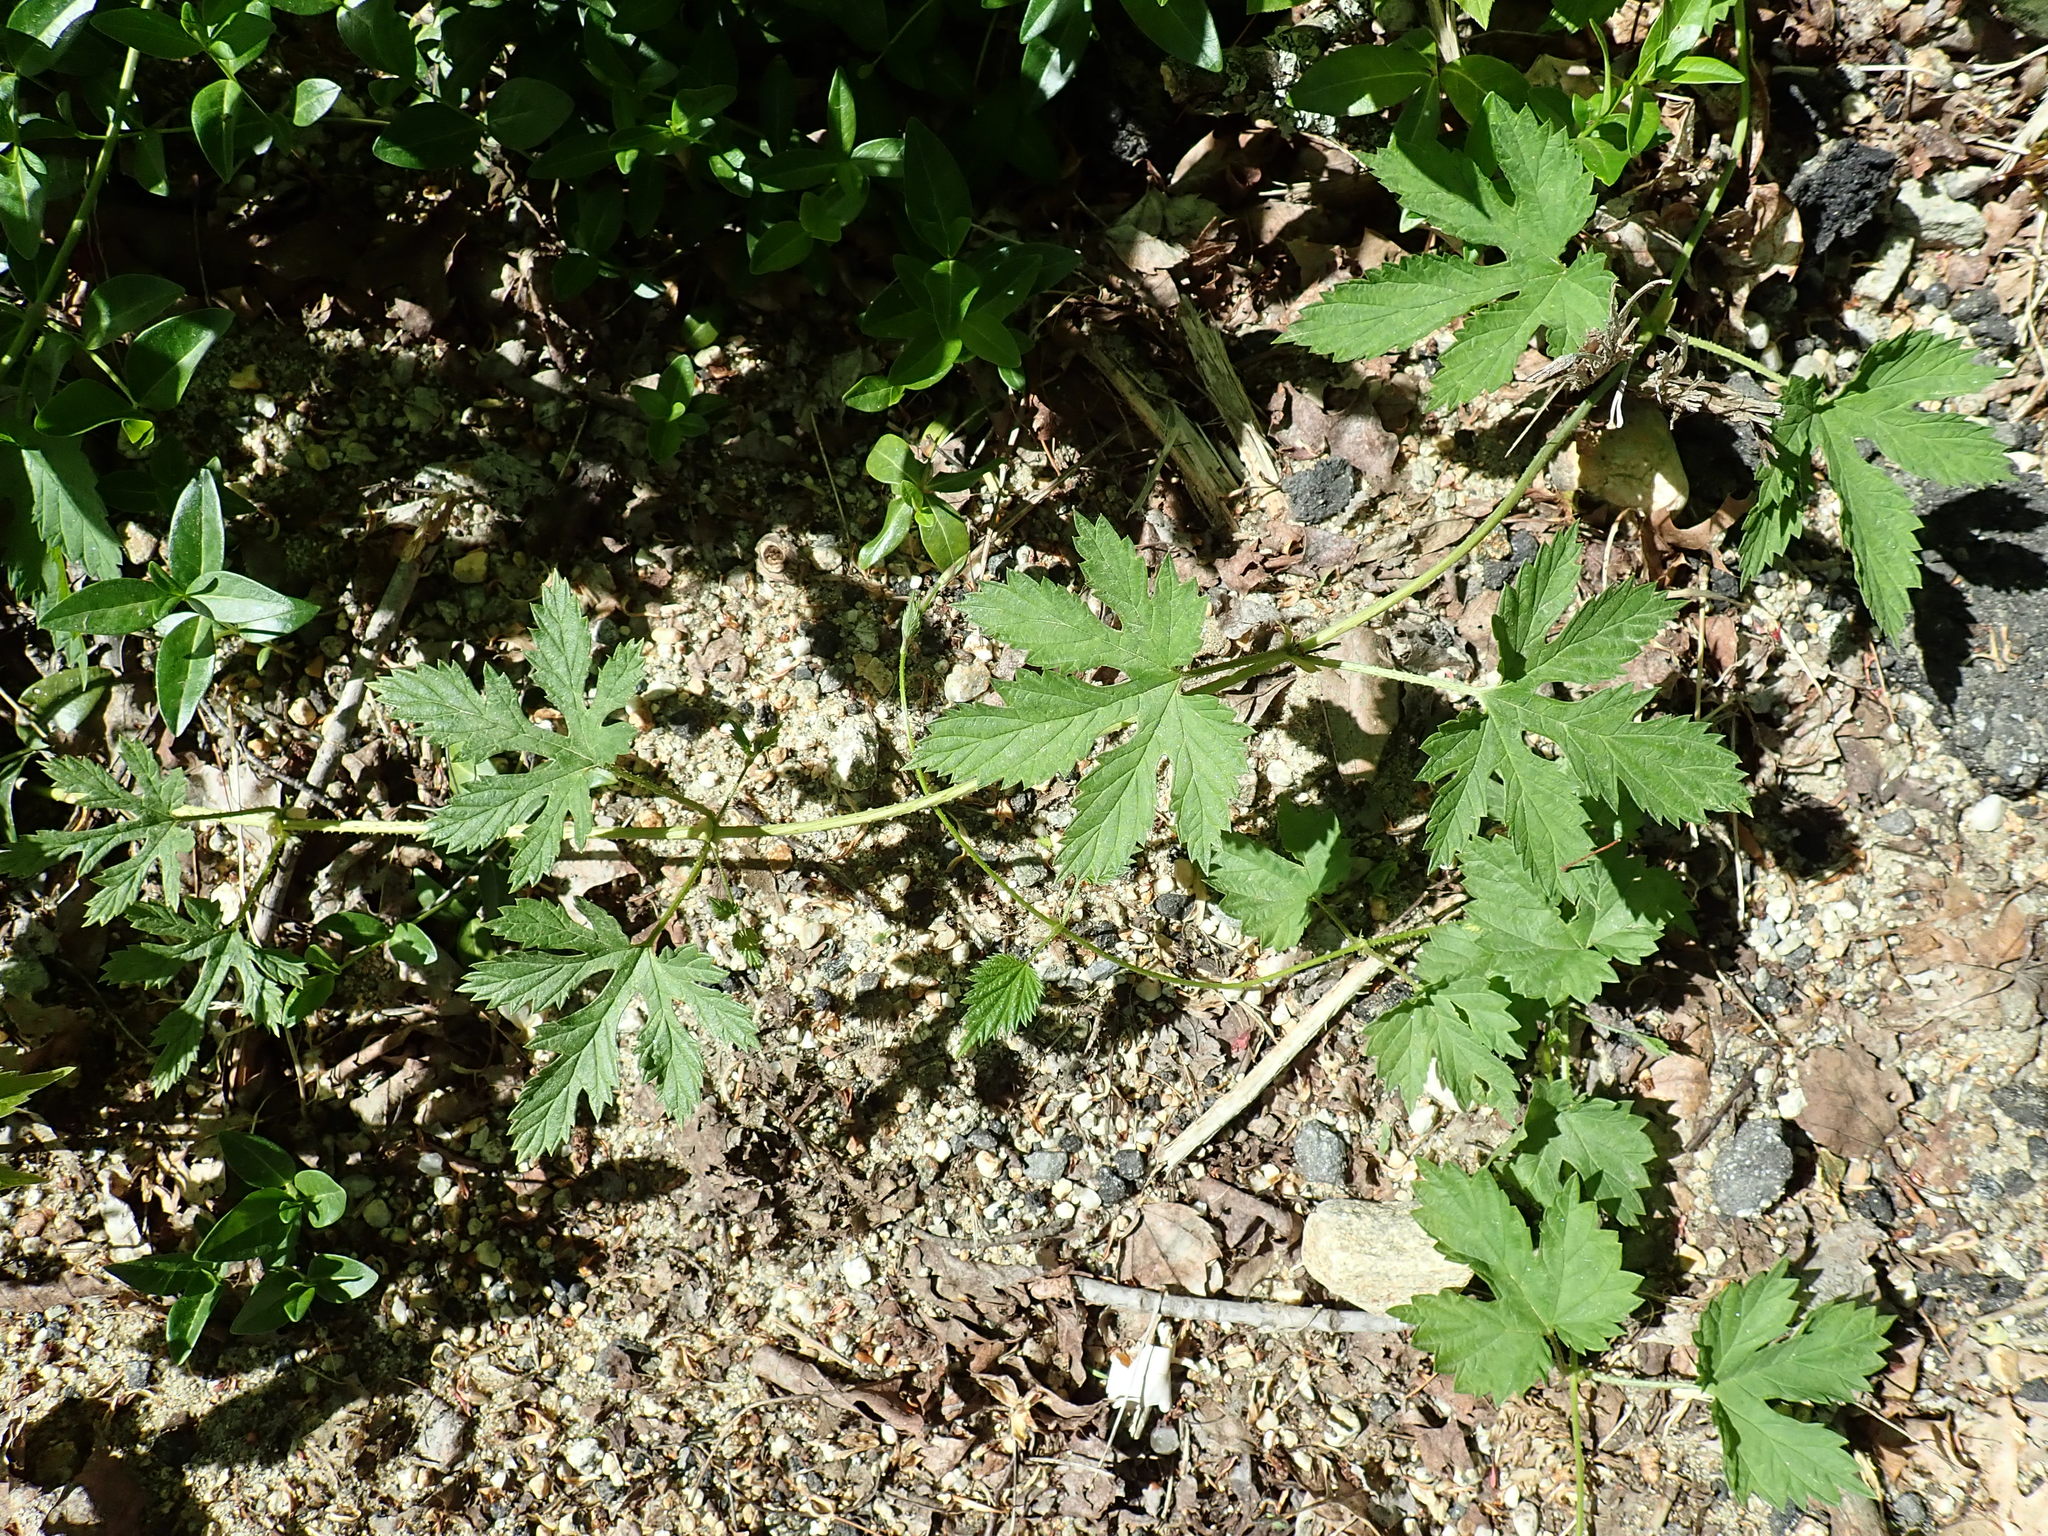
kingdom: Plantae
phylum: Tracheophyta
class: Magnoliopsida
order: Rosales
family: Cannabaceae
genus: Humulus
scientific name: Humulus scandens
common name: Japanese hop
